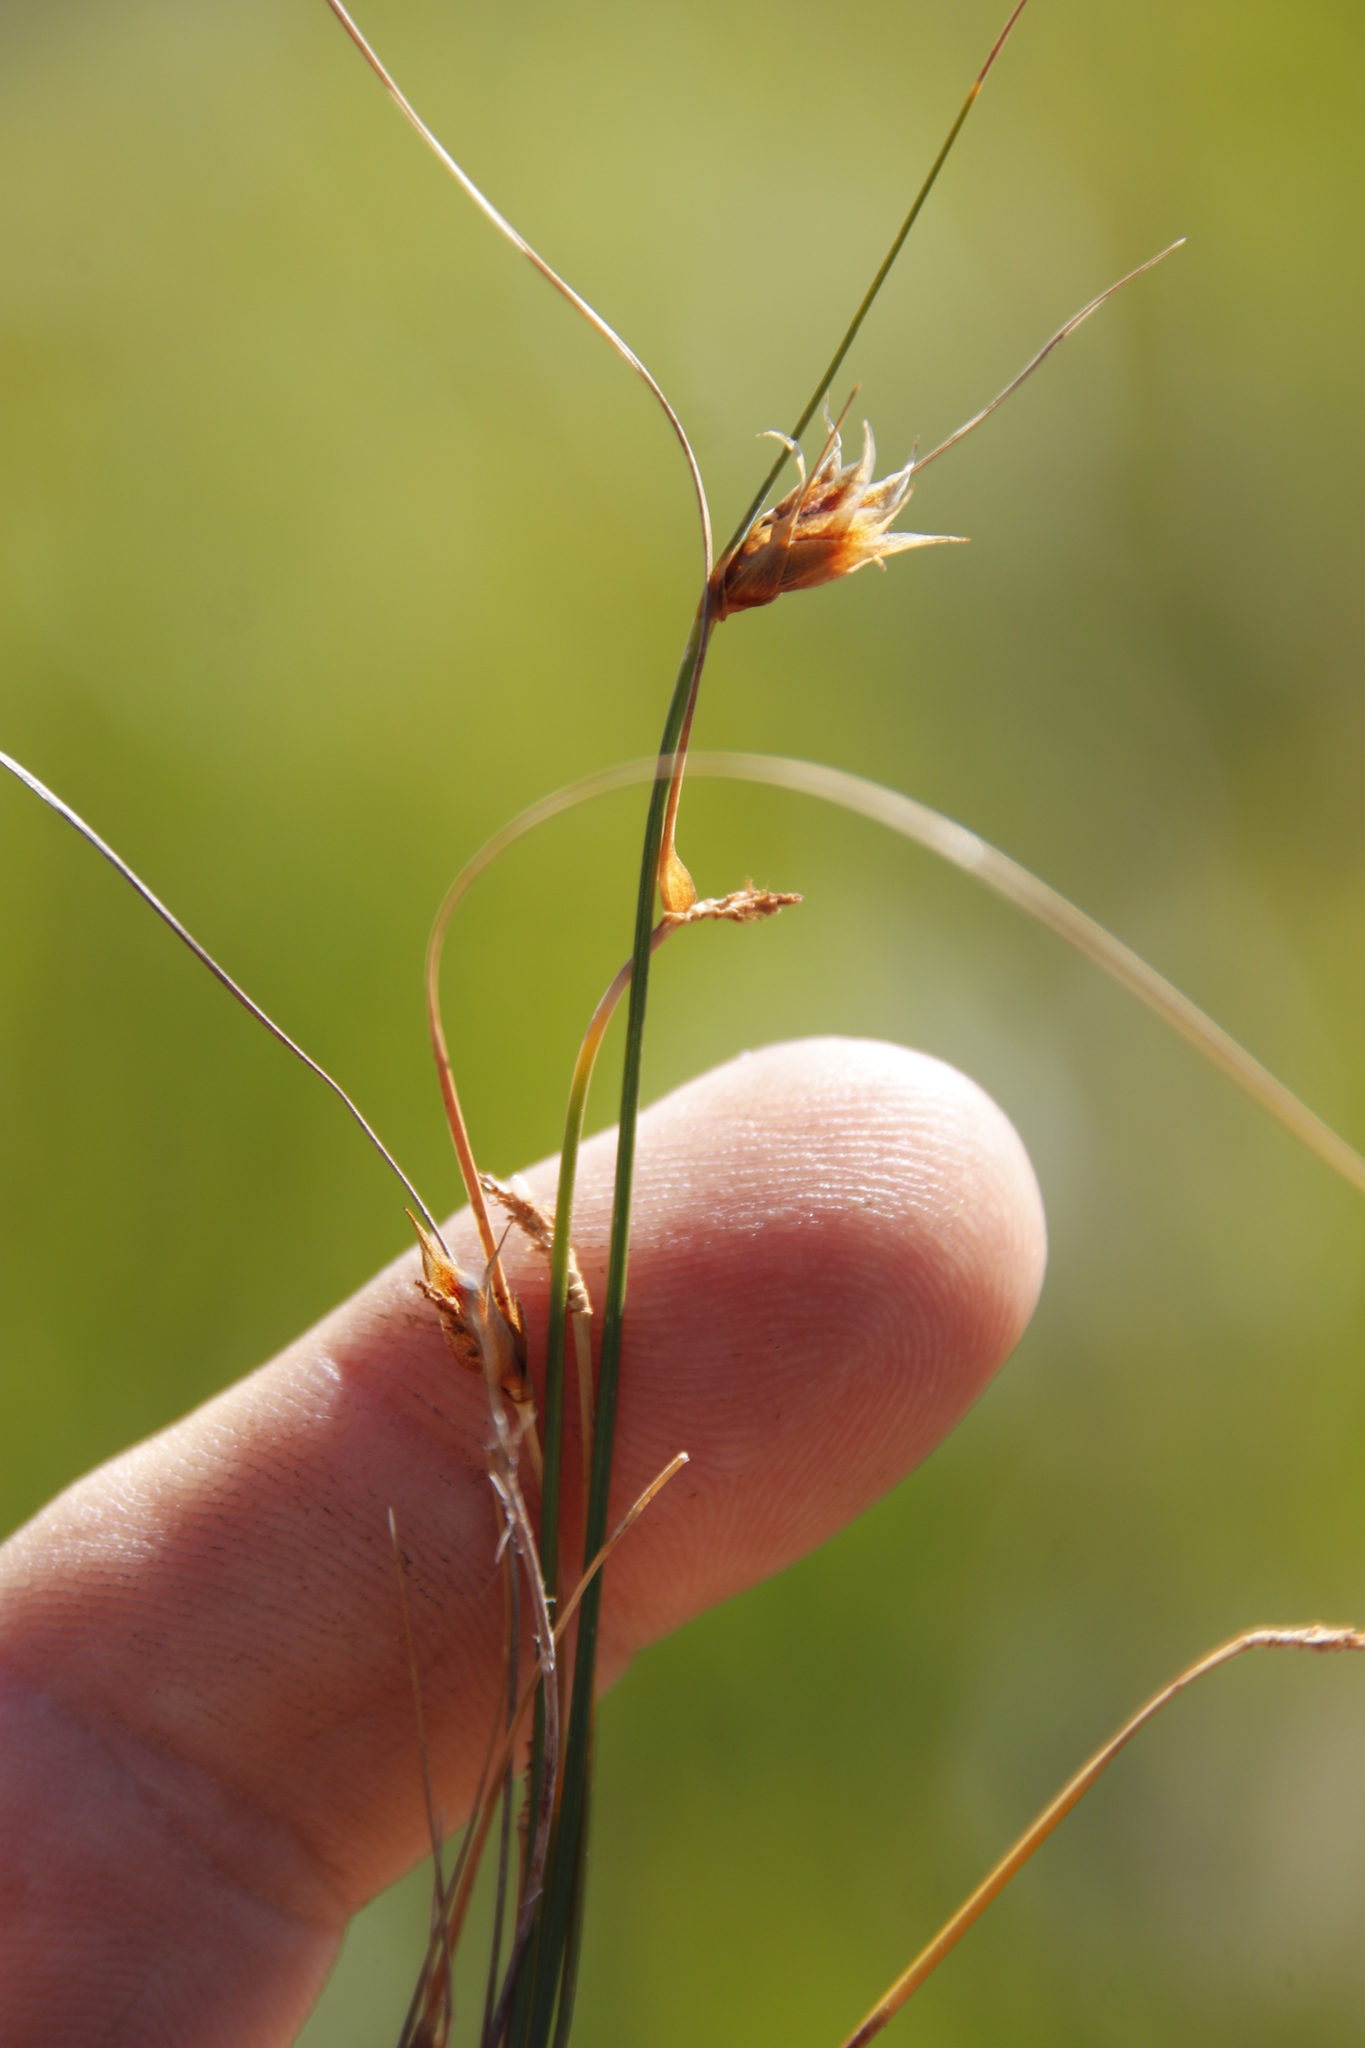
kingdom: Plantae
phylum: Tracheophyta
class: Liliopsida
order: Poales
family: Cyperaceae
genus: Ficinia
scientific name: Ficinia nigrescens
